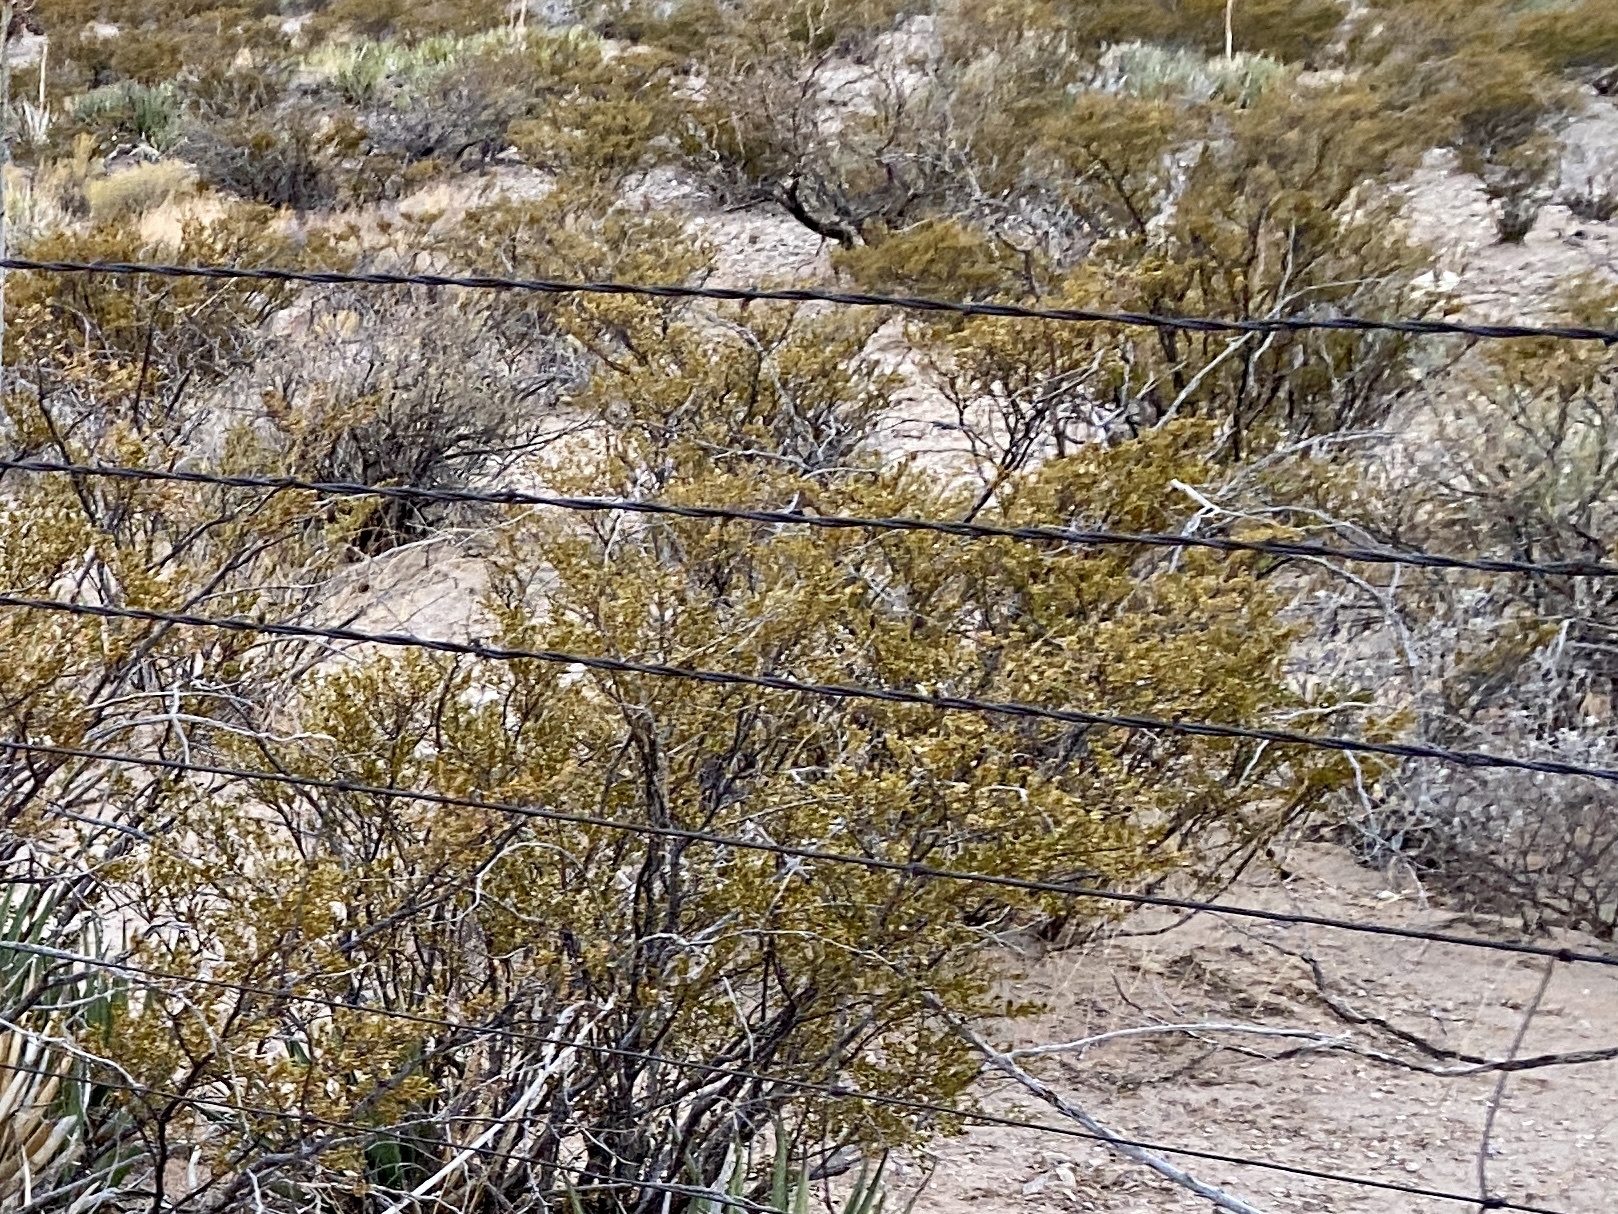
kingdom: Plantae
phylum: Tracheophyta
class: Magnoliopsida
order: Zygophyllales
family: Zygophyllaceae
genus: Larrea
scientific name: Larrea tridentata
